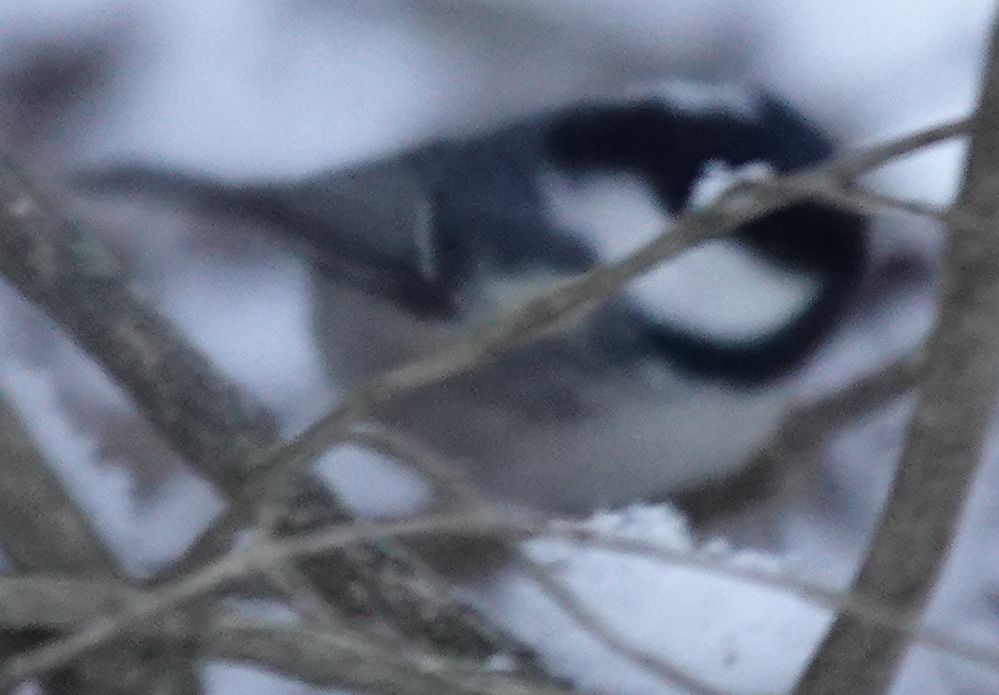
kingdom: Animalia
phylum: Chordata
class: Aves
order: Passeriformes
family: Paridae
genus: Periparus
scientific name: Periparus ater
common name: Coal tit
